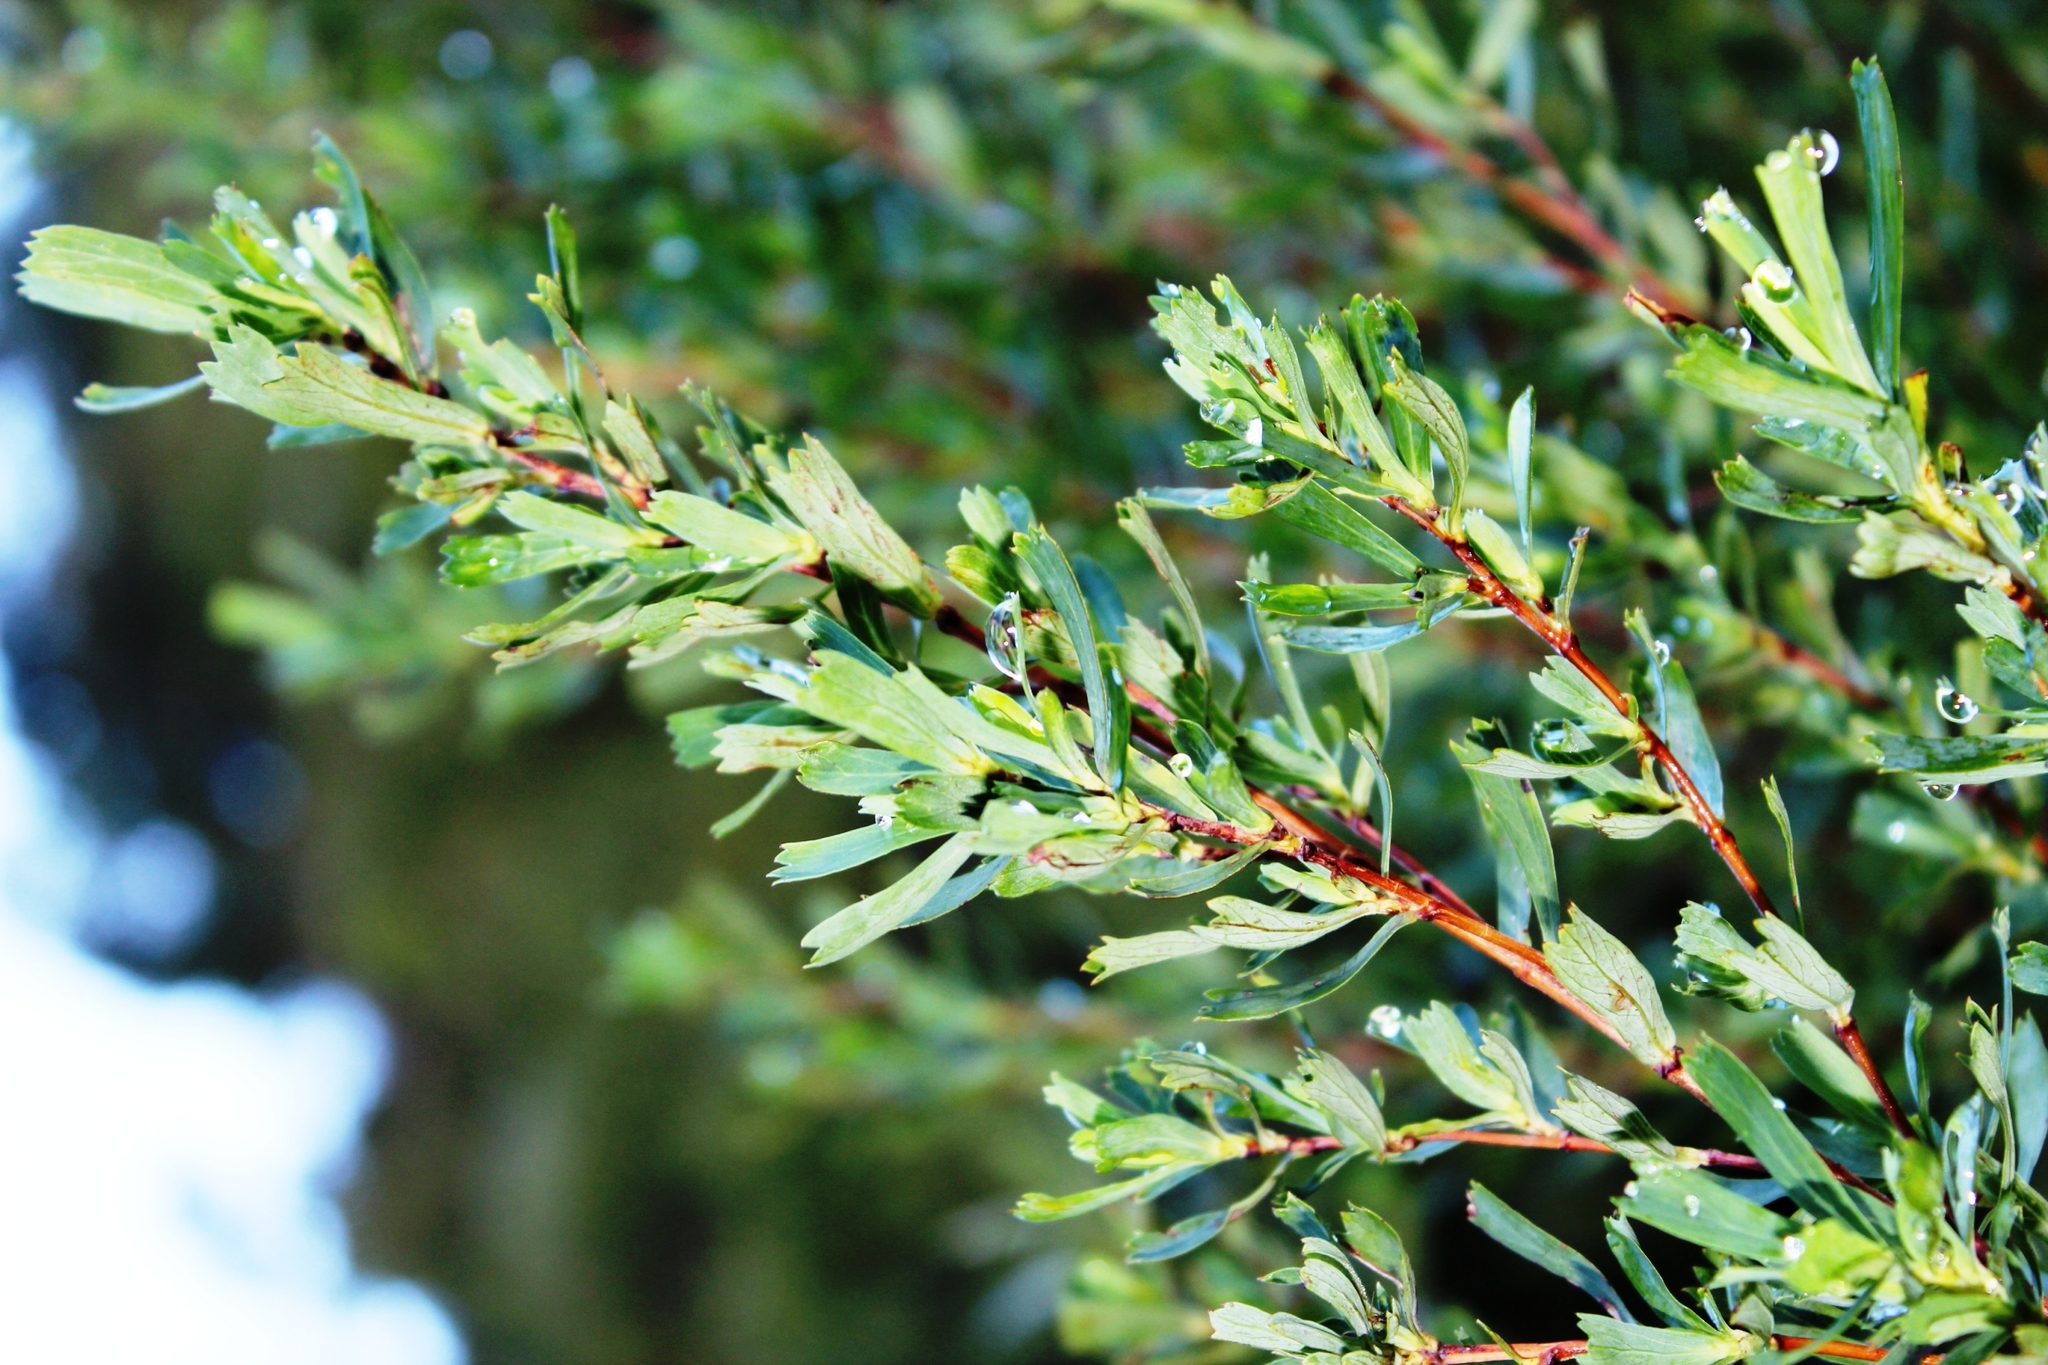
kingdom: Plantae
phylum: Tracheophyta
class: Magnoliopsida
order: Rosales
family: Rosaceae
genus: Cliffortia
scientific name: Cliffortia cuneata
